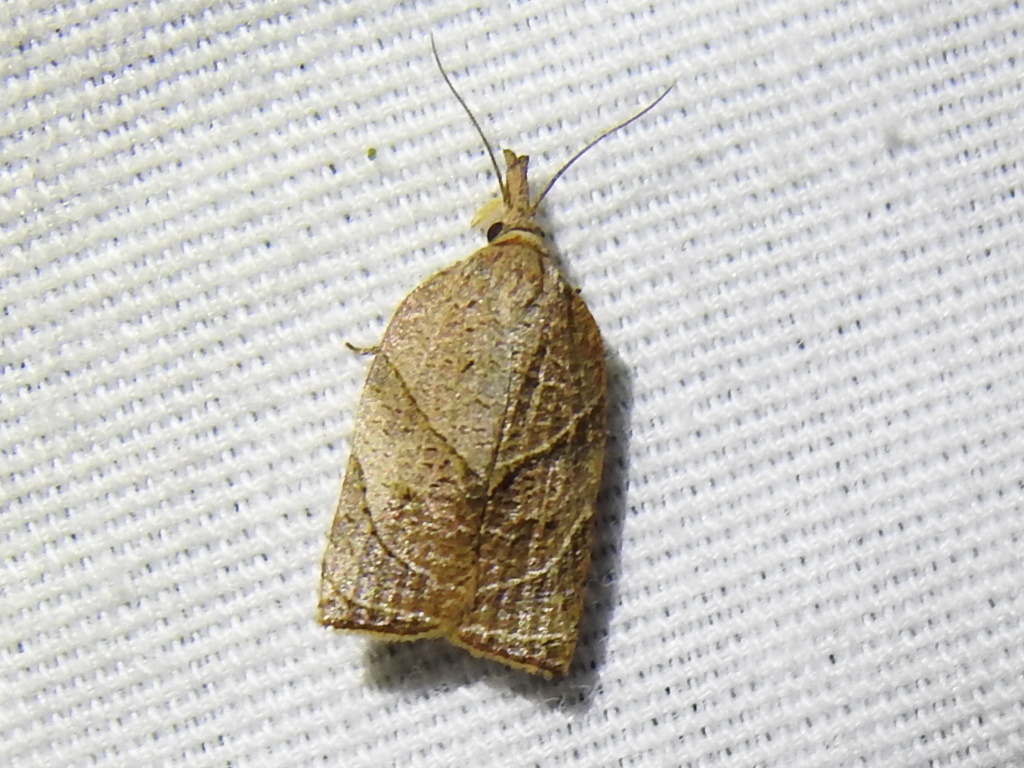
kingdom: Animalia
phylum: Arthropoda
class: Insecta
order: Lepidoptera
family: Tortricidae
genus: Platynota
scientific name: Platynota rostrana
